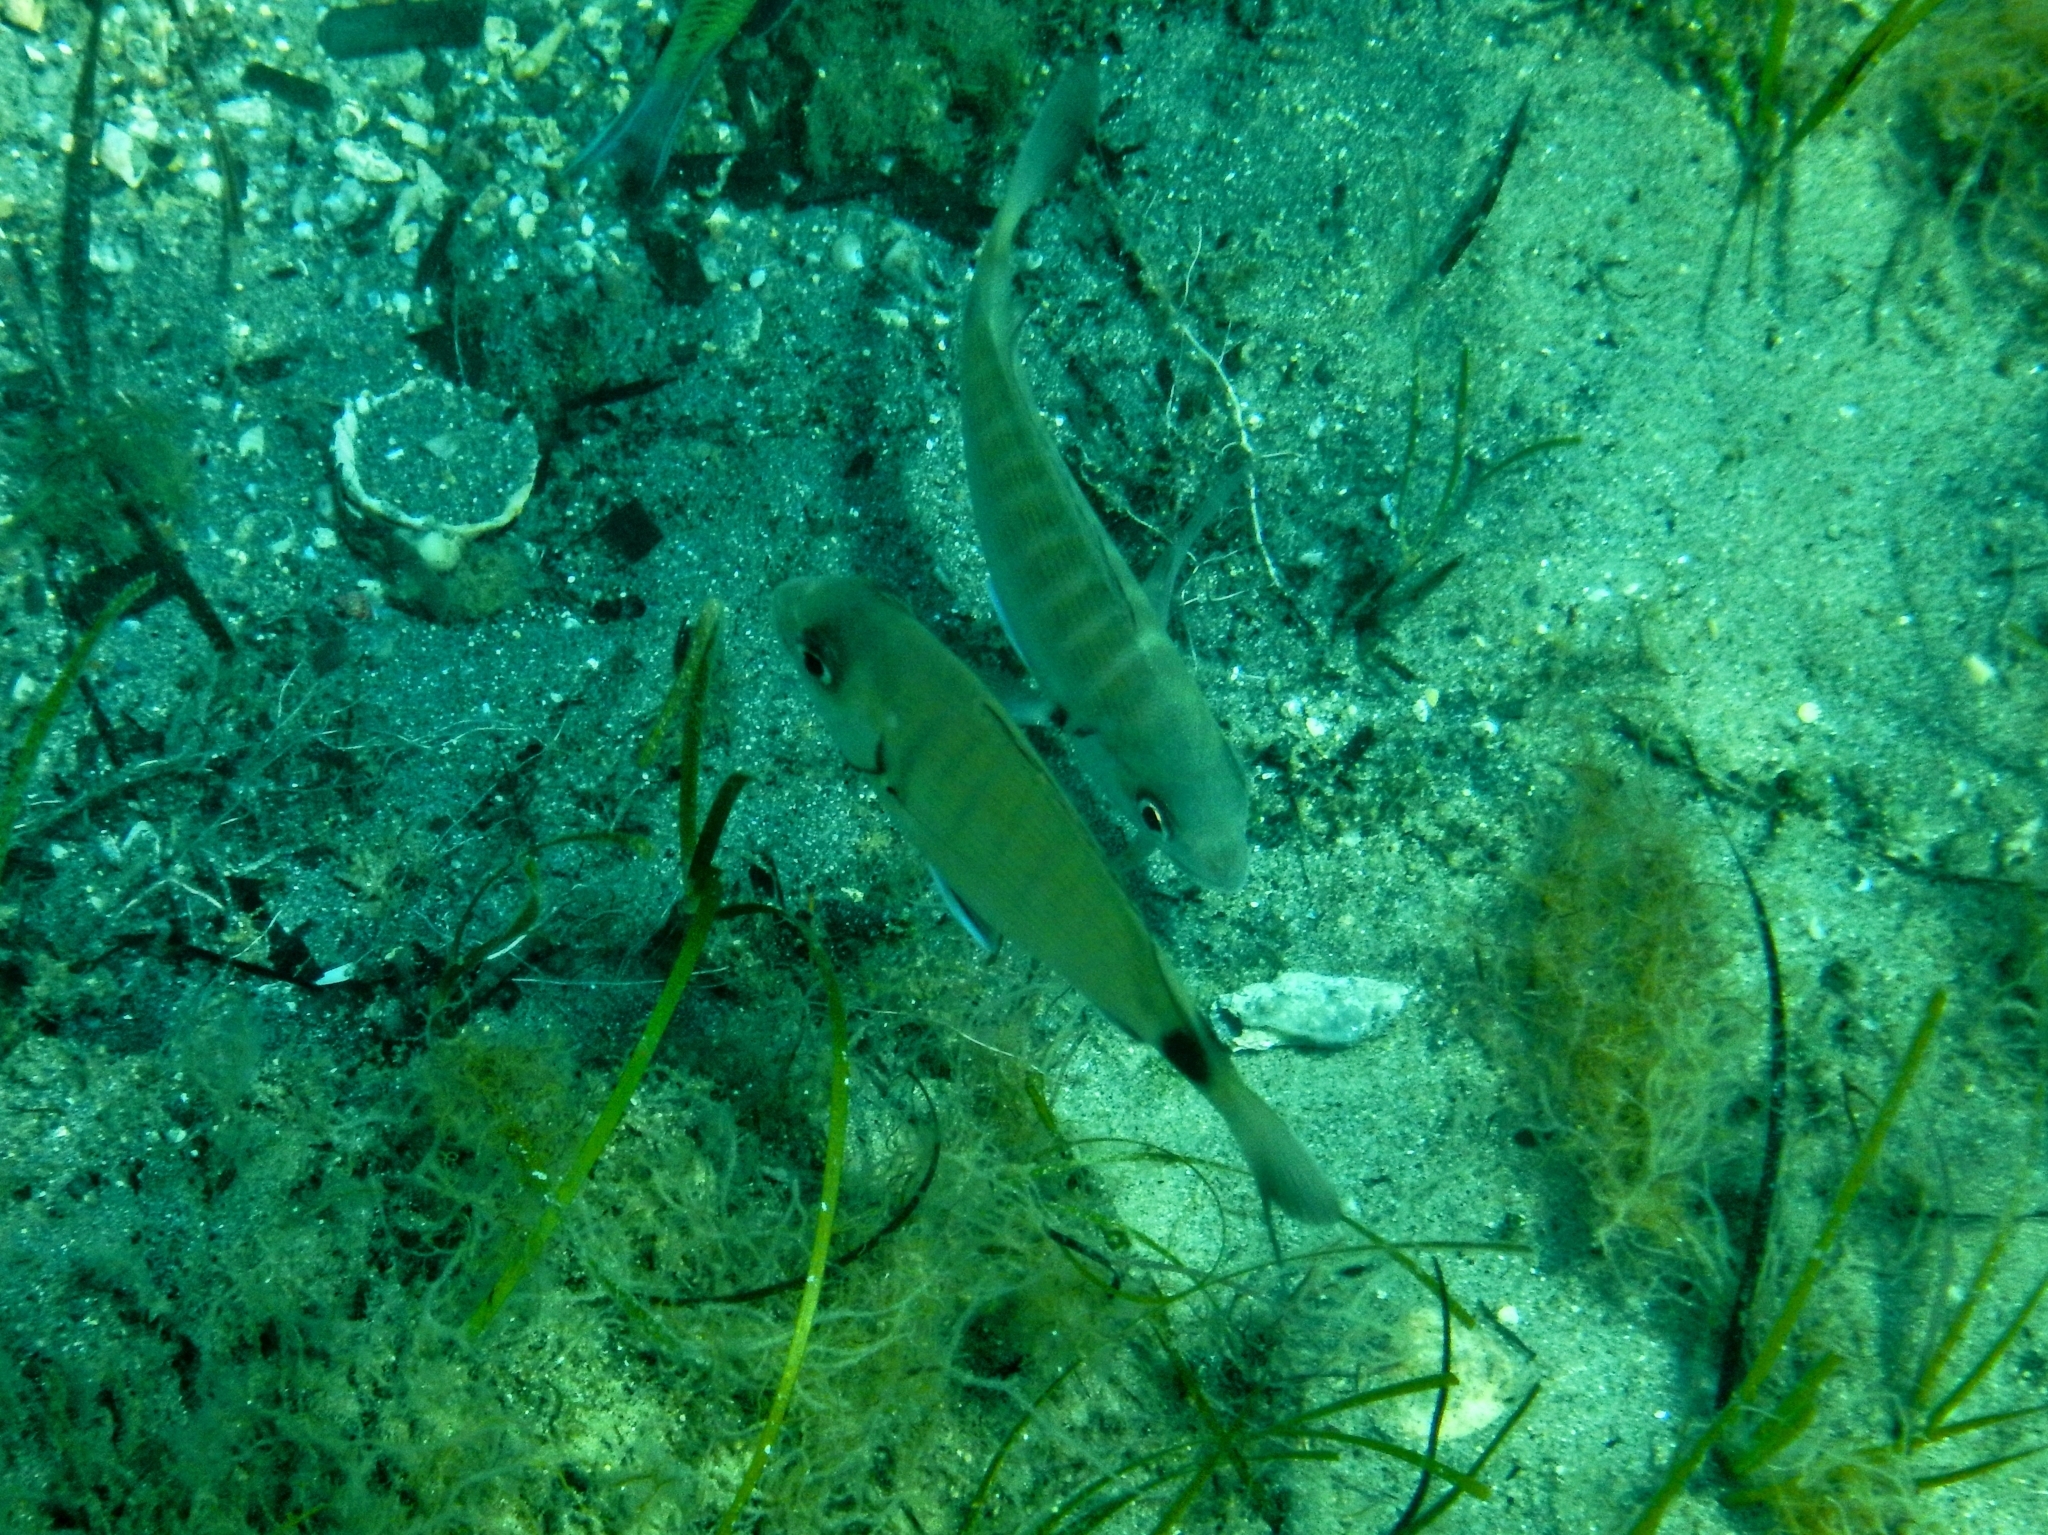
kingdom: Animalia
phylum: Chordata
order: Perciformes
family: Sparidae
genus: Diplodus
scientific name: Diplodus sargus
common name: White seabream
